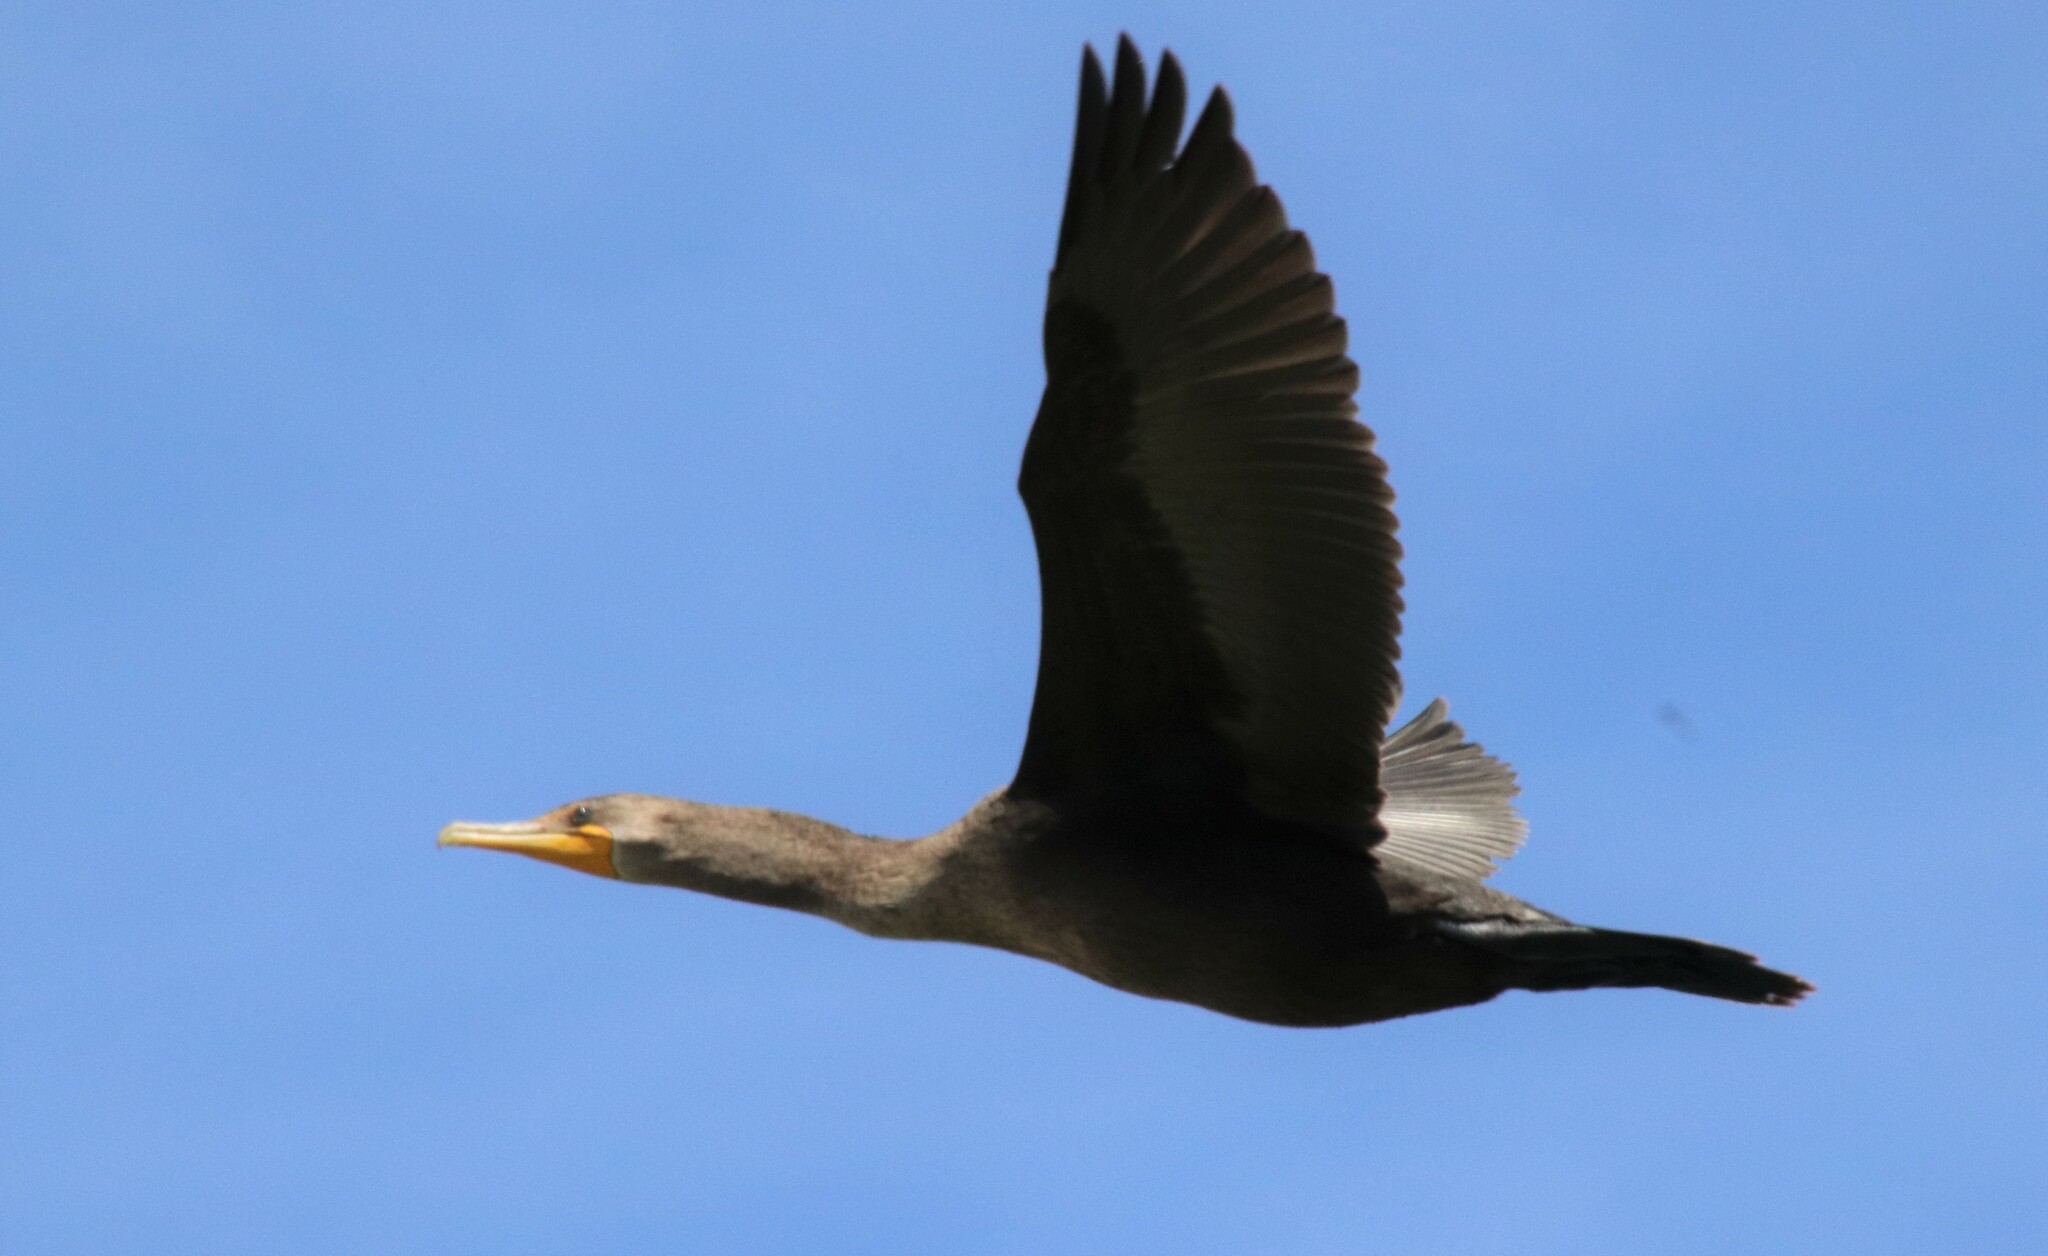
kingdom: Animalia
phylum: Chordata
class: Aves
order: Suliformes
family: Phalacrocoracidae
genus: Phalacrocorax
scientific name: Phalacrocorax auritus
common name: Double-crested cormorant
